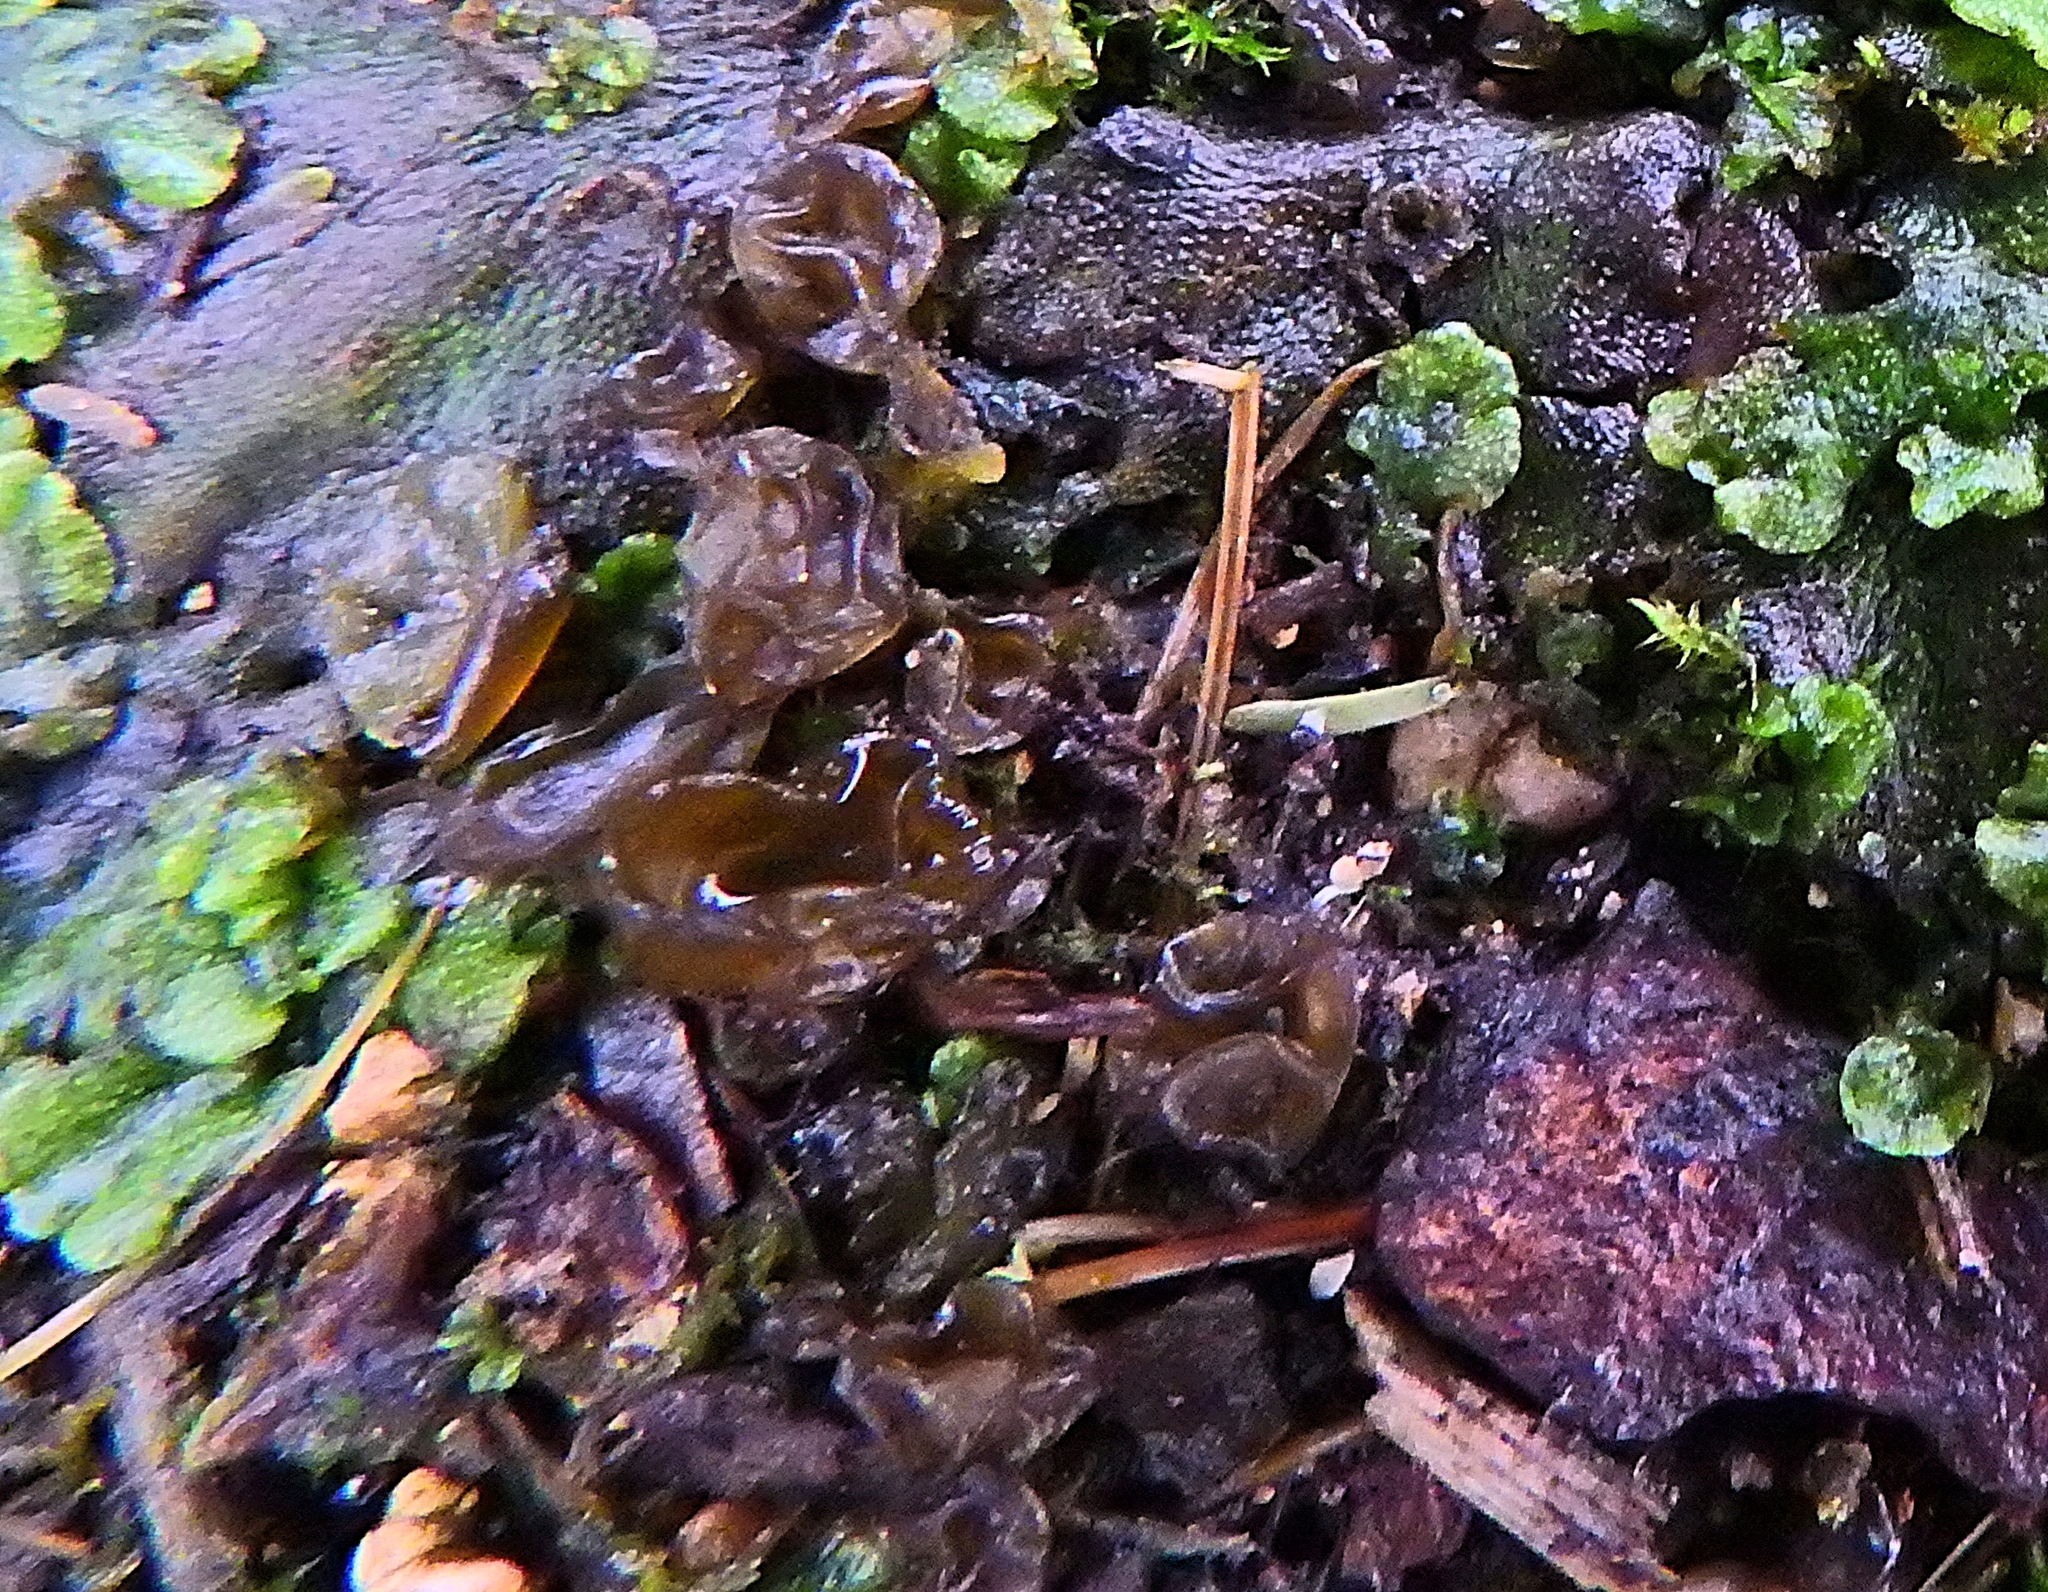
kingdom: Bacteria
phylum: Cyanobacteria
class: Cyanobacteriia
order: Cyanobacteriales
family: Nostocaceae
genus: Nostoc
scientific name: Nostoc commune
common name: Star jelly
